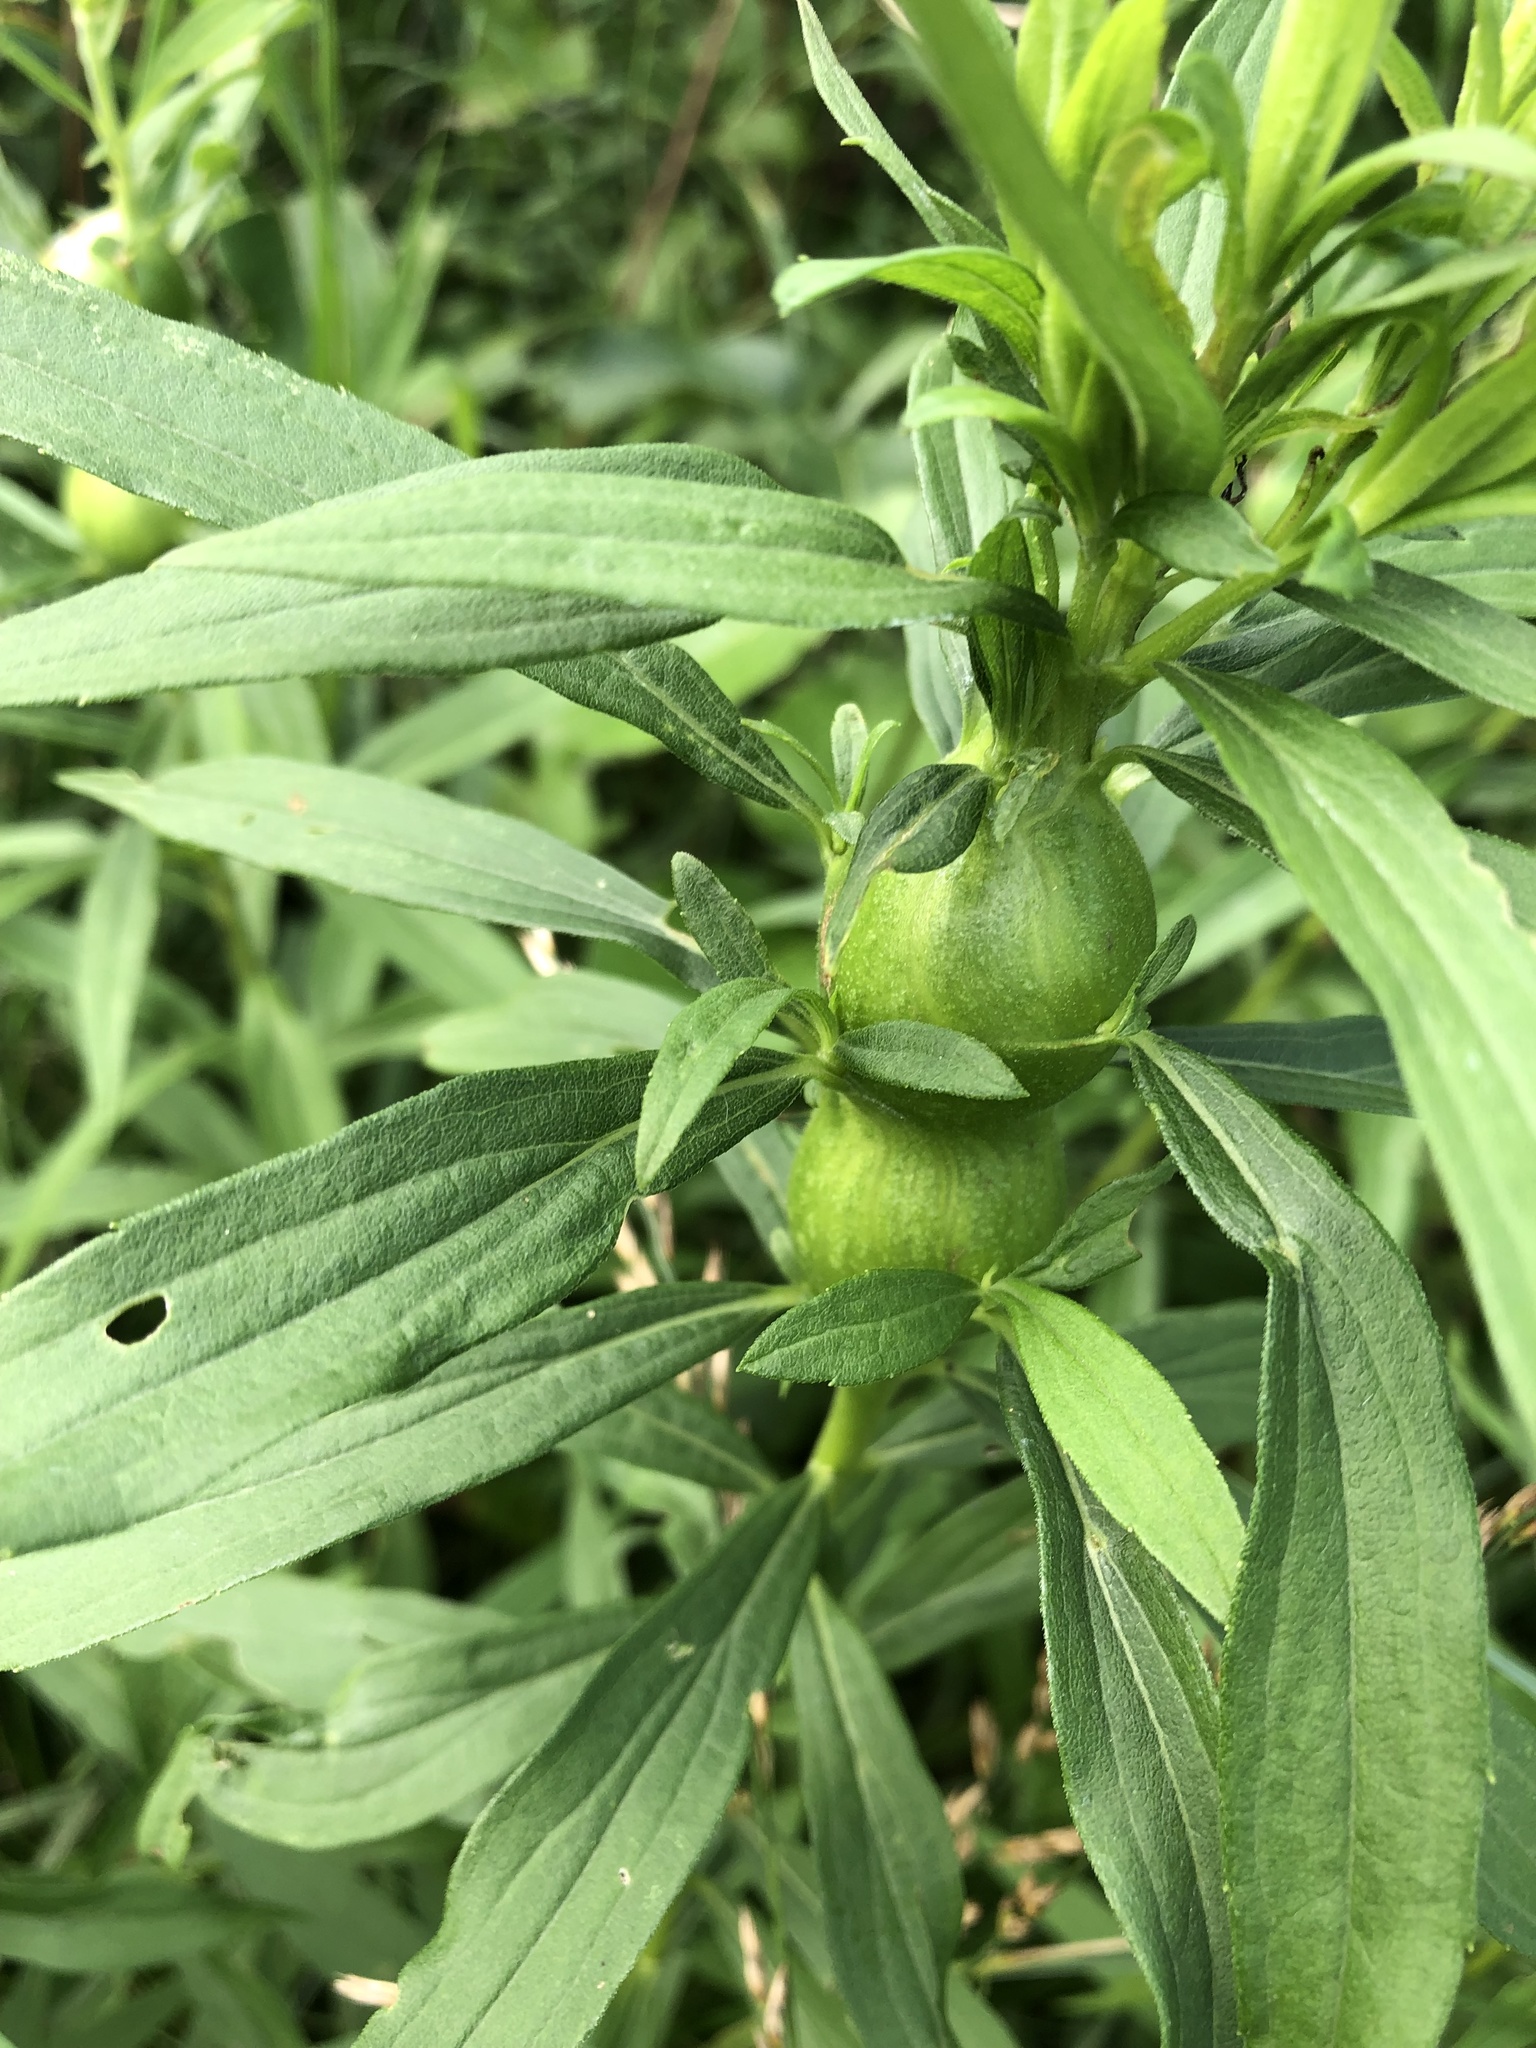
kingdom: Animalia
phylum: Arthropoda
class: Insecta
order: Diptera
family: Tephritidae
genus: Eurosta
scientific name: Eurosta solidaginis
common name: Goldenrod gall fly
